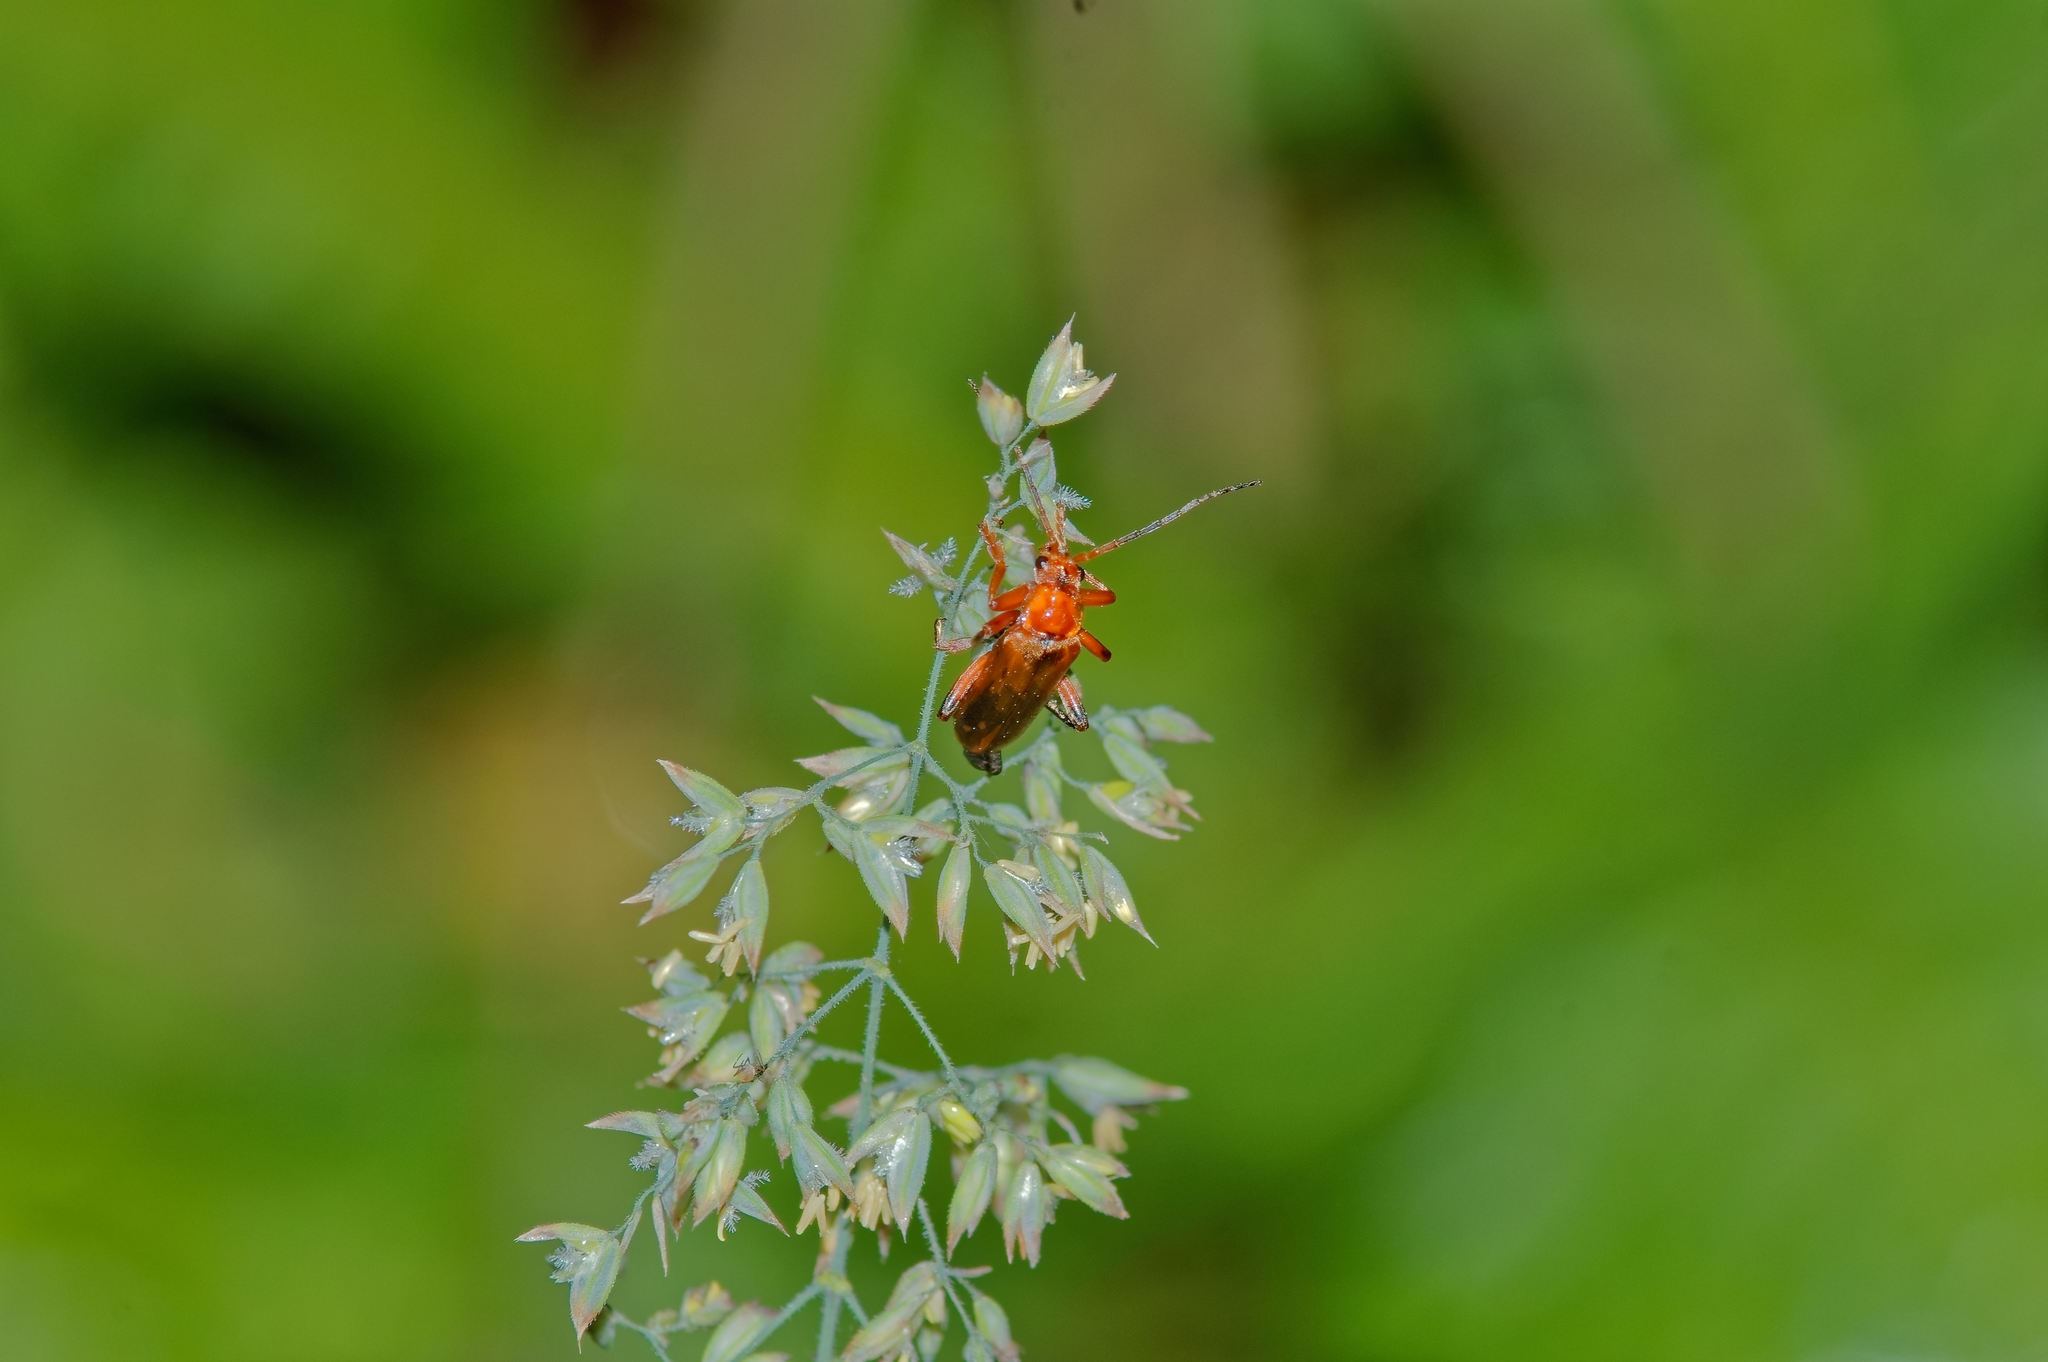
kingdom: Animalia
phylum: Arthropoda
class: Insecta
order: Coleoptera
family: Cantharidae
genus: Cantharis
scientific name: Cantharis livida
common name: Livid soldier beetle
